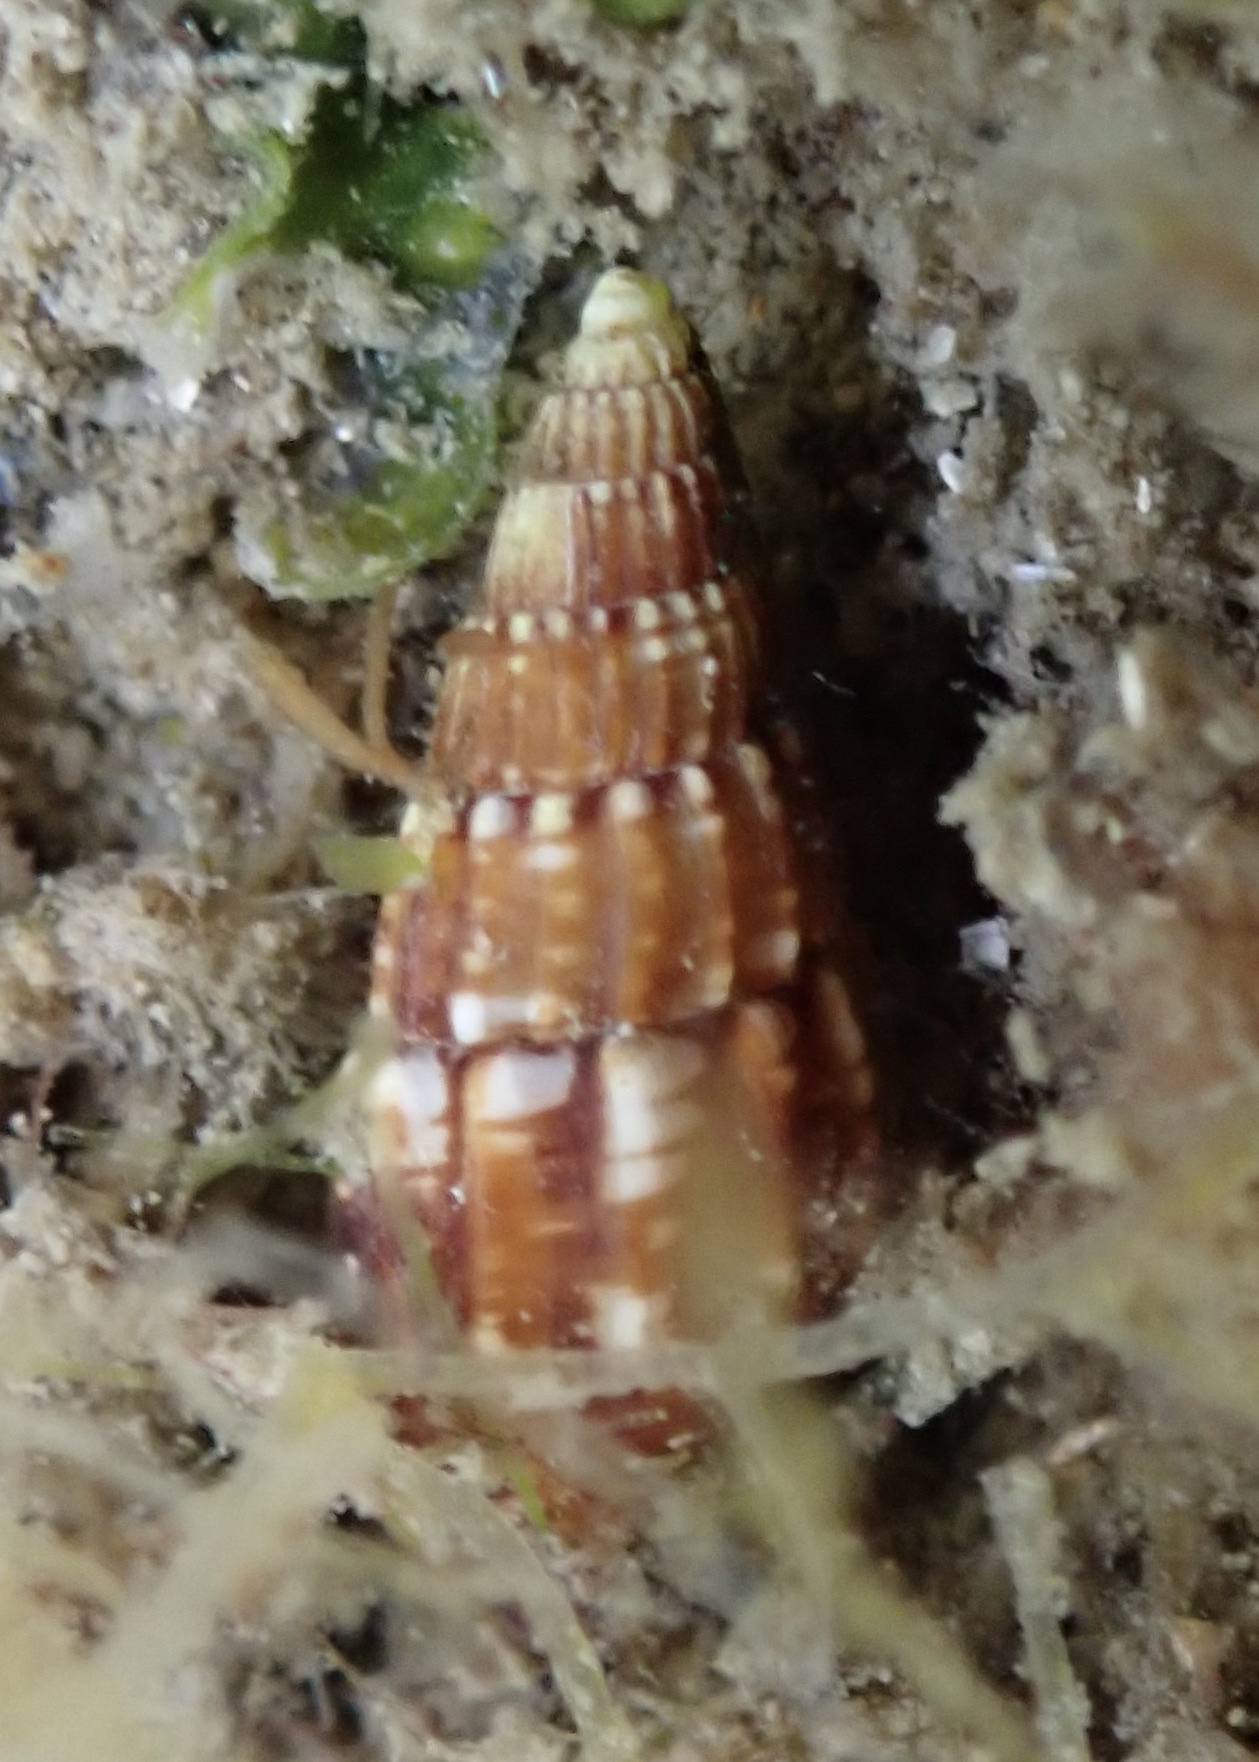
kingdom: Animalia
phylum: Mollusca
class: Gastropoda
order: Neogastropoda
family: Columbellidae
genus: Costoanachis
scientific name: Costoanachis translirata
